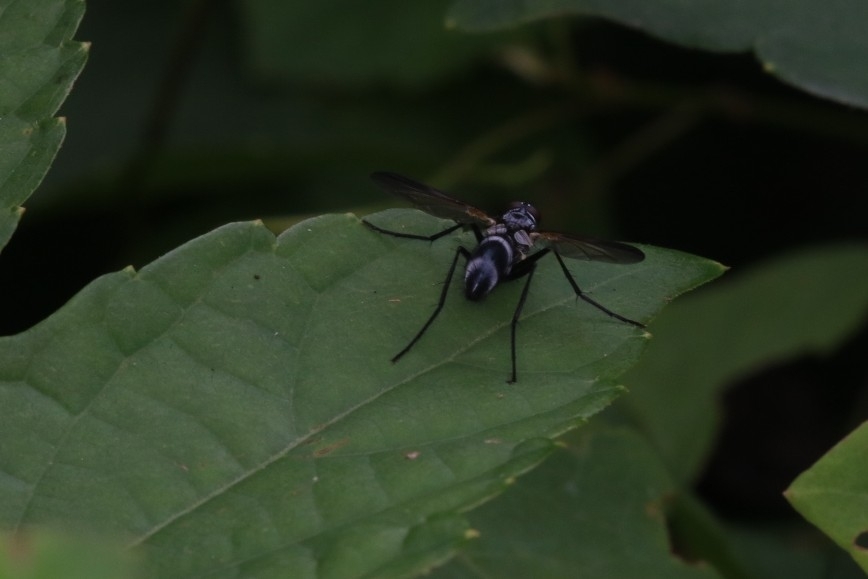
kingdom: Animalia
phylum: Arthropoda
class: Insecta
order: Diptera
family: Tachinidae
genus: Cordyligaster
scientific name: Cordyligaster septentrionalis
